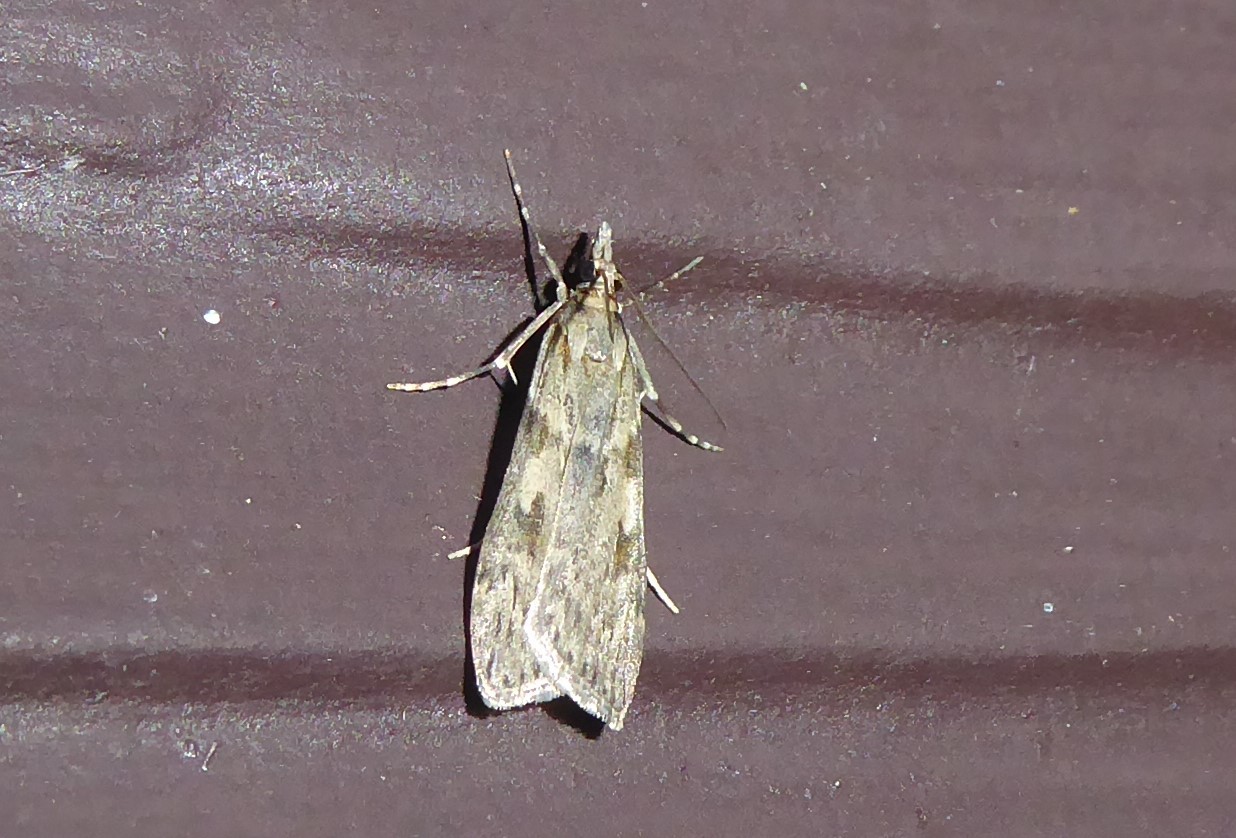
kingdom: Animalia
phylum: Arthropoda
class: Insecta
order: Lepidoptera
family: Crambidae
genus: Scoparia
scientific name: Scoparia halopis
